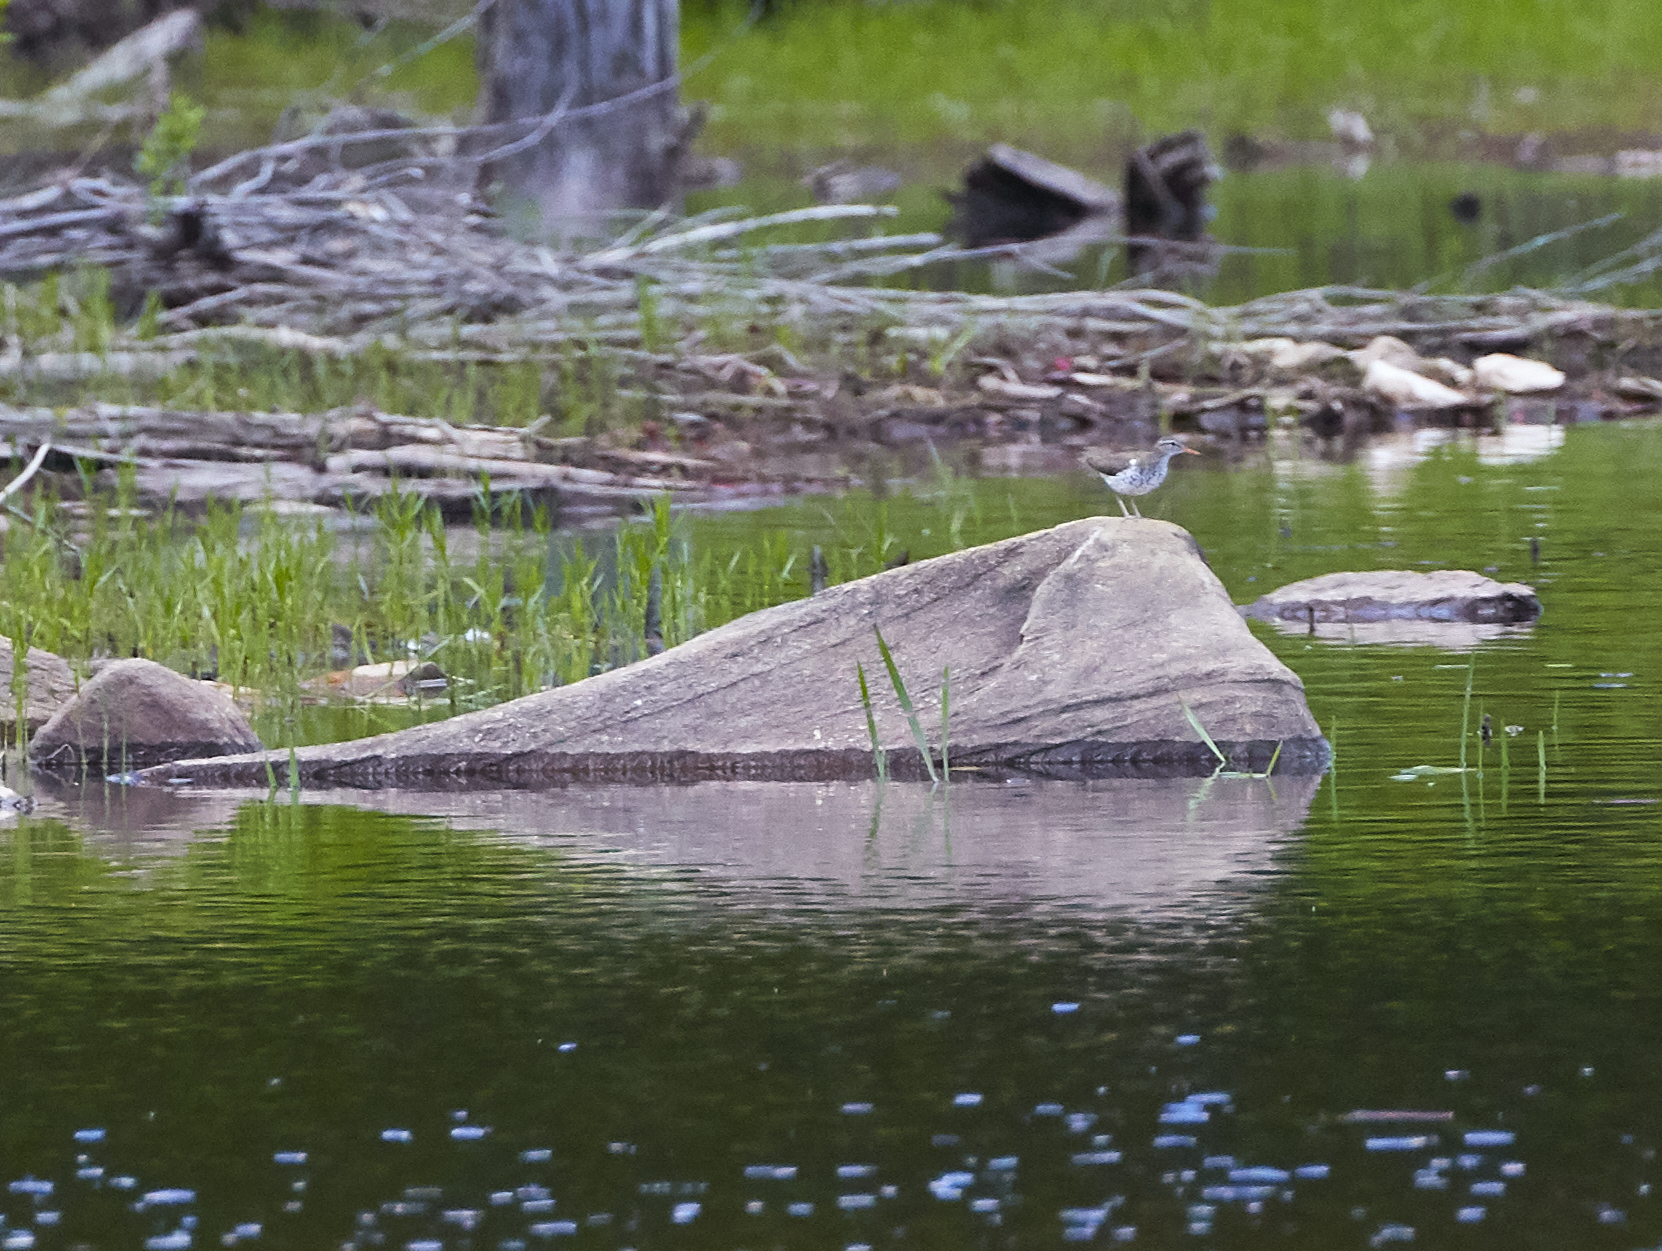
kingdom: Animalia
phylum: Chordata
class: Aves
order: Charadriiformes
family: Scolopacidae
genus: Actitis
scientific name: Actitis macularius
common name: Spotted sandpiper
